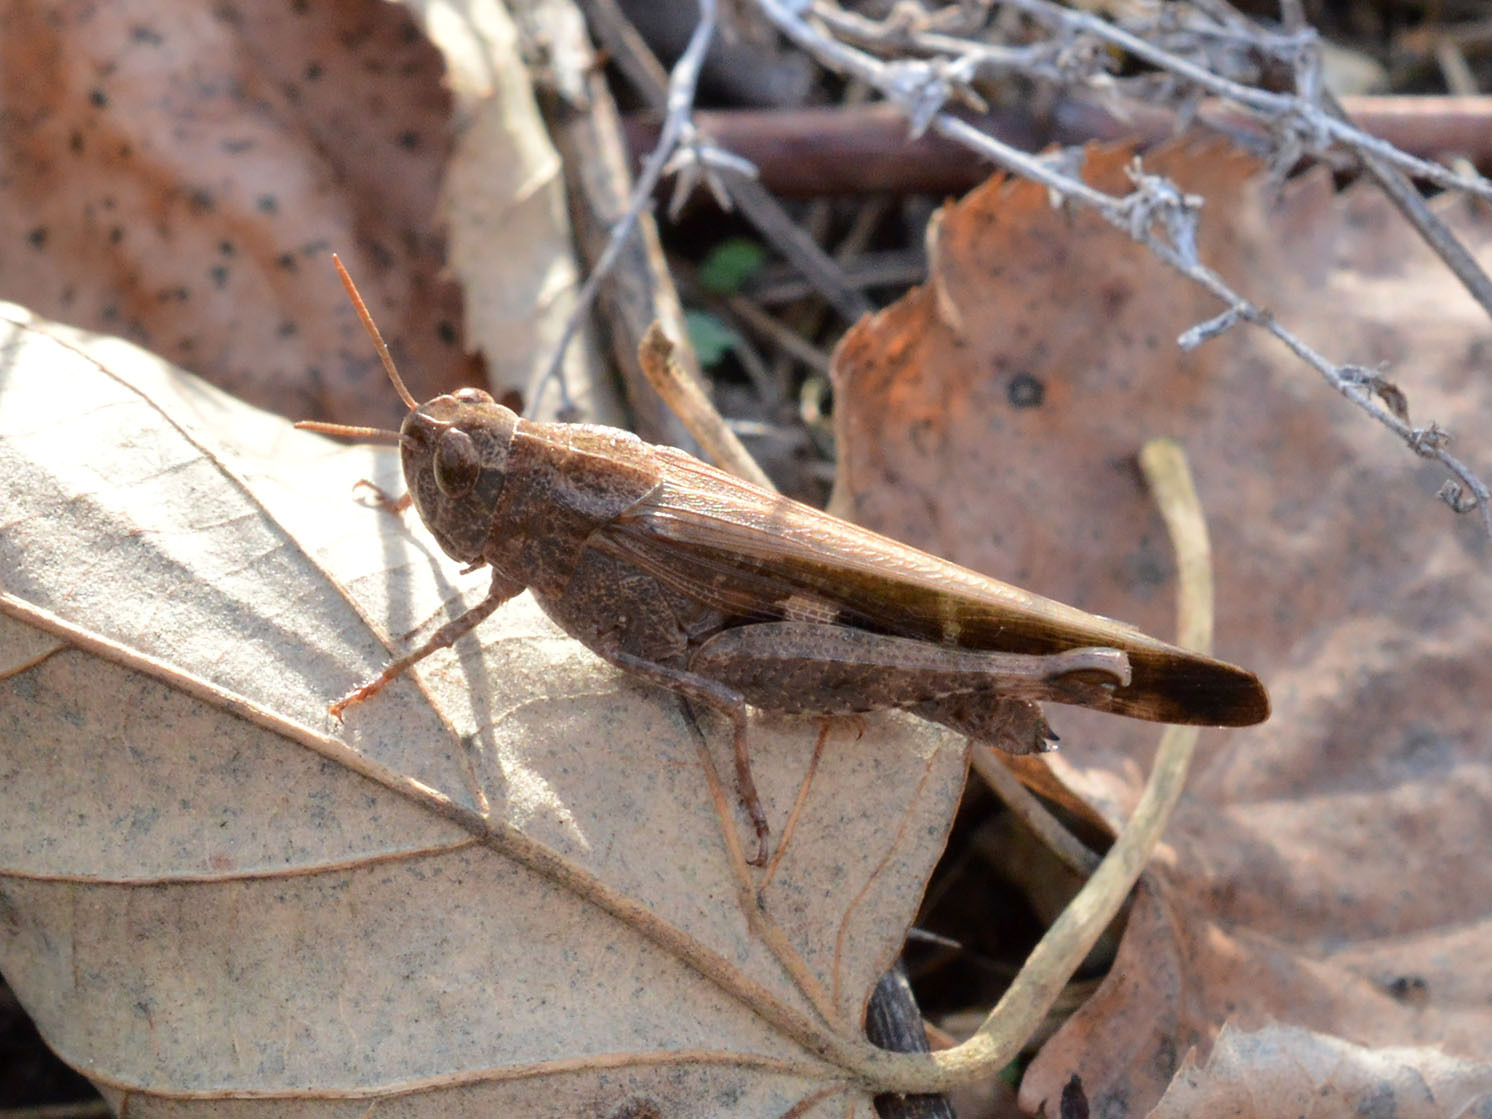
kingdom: Animalia
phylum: Arthropoda
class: Insecta
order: Orthoptera
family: Acrididae
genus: Aiolopus
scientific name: Aiolopus strepens
